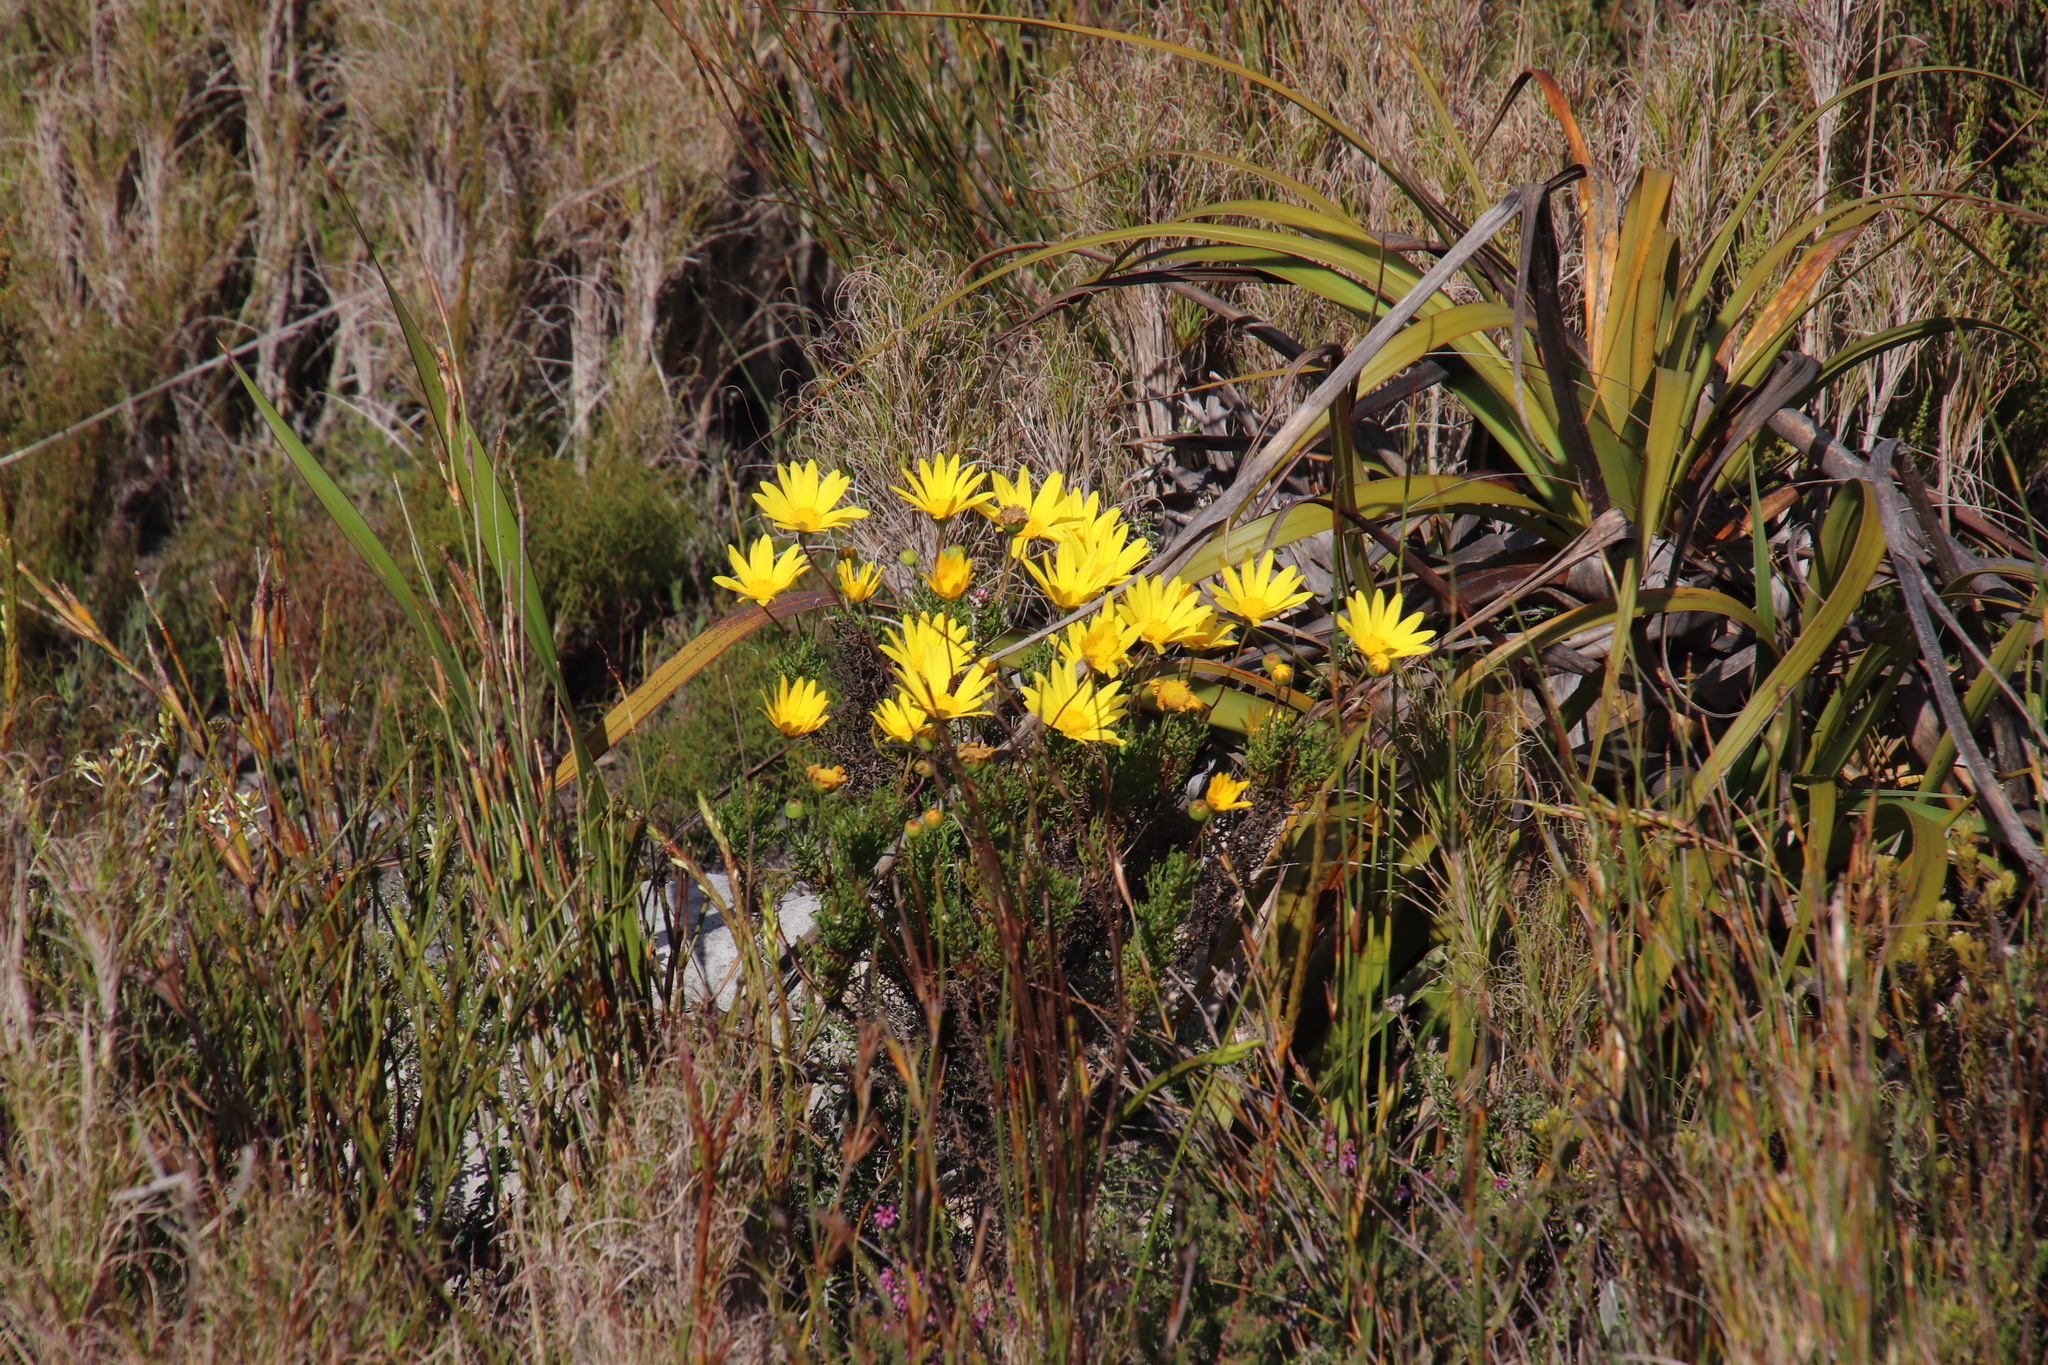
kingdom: Plantae
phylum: Tracheophyta
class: Magnoliopsida
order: Asterales
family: Asteraceae
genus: Euryops
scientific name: Euryops abrotanifolius
